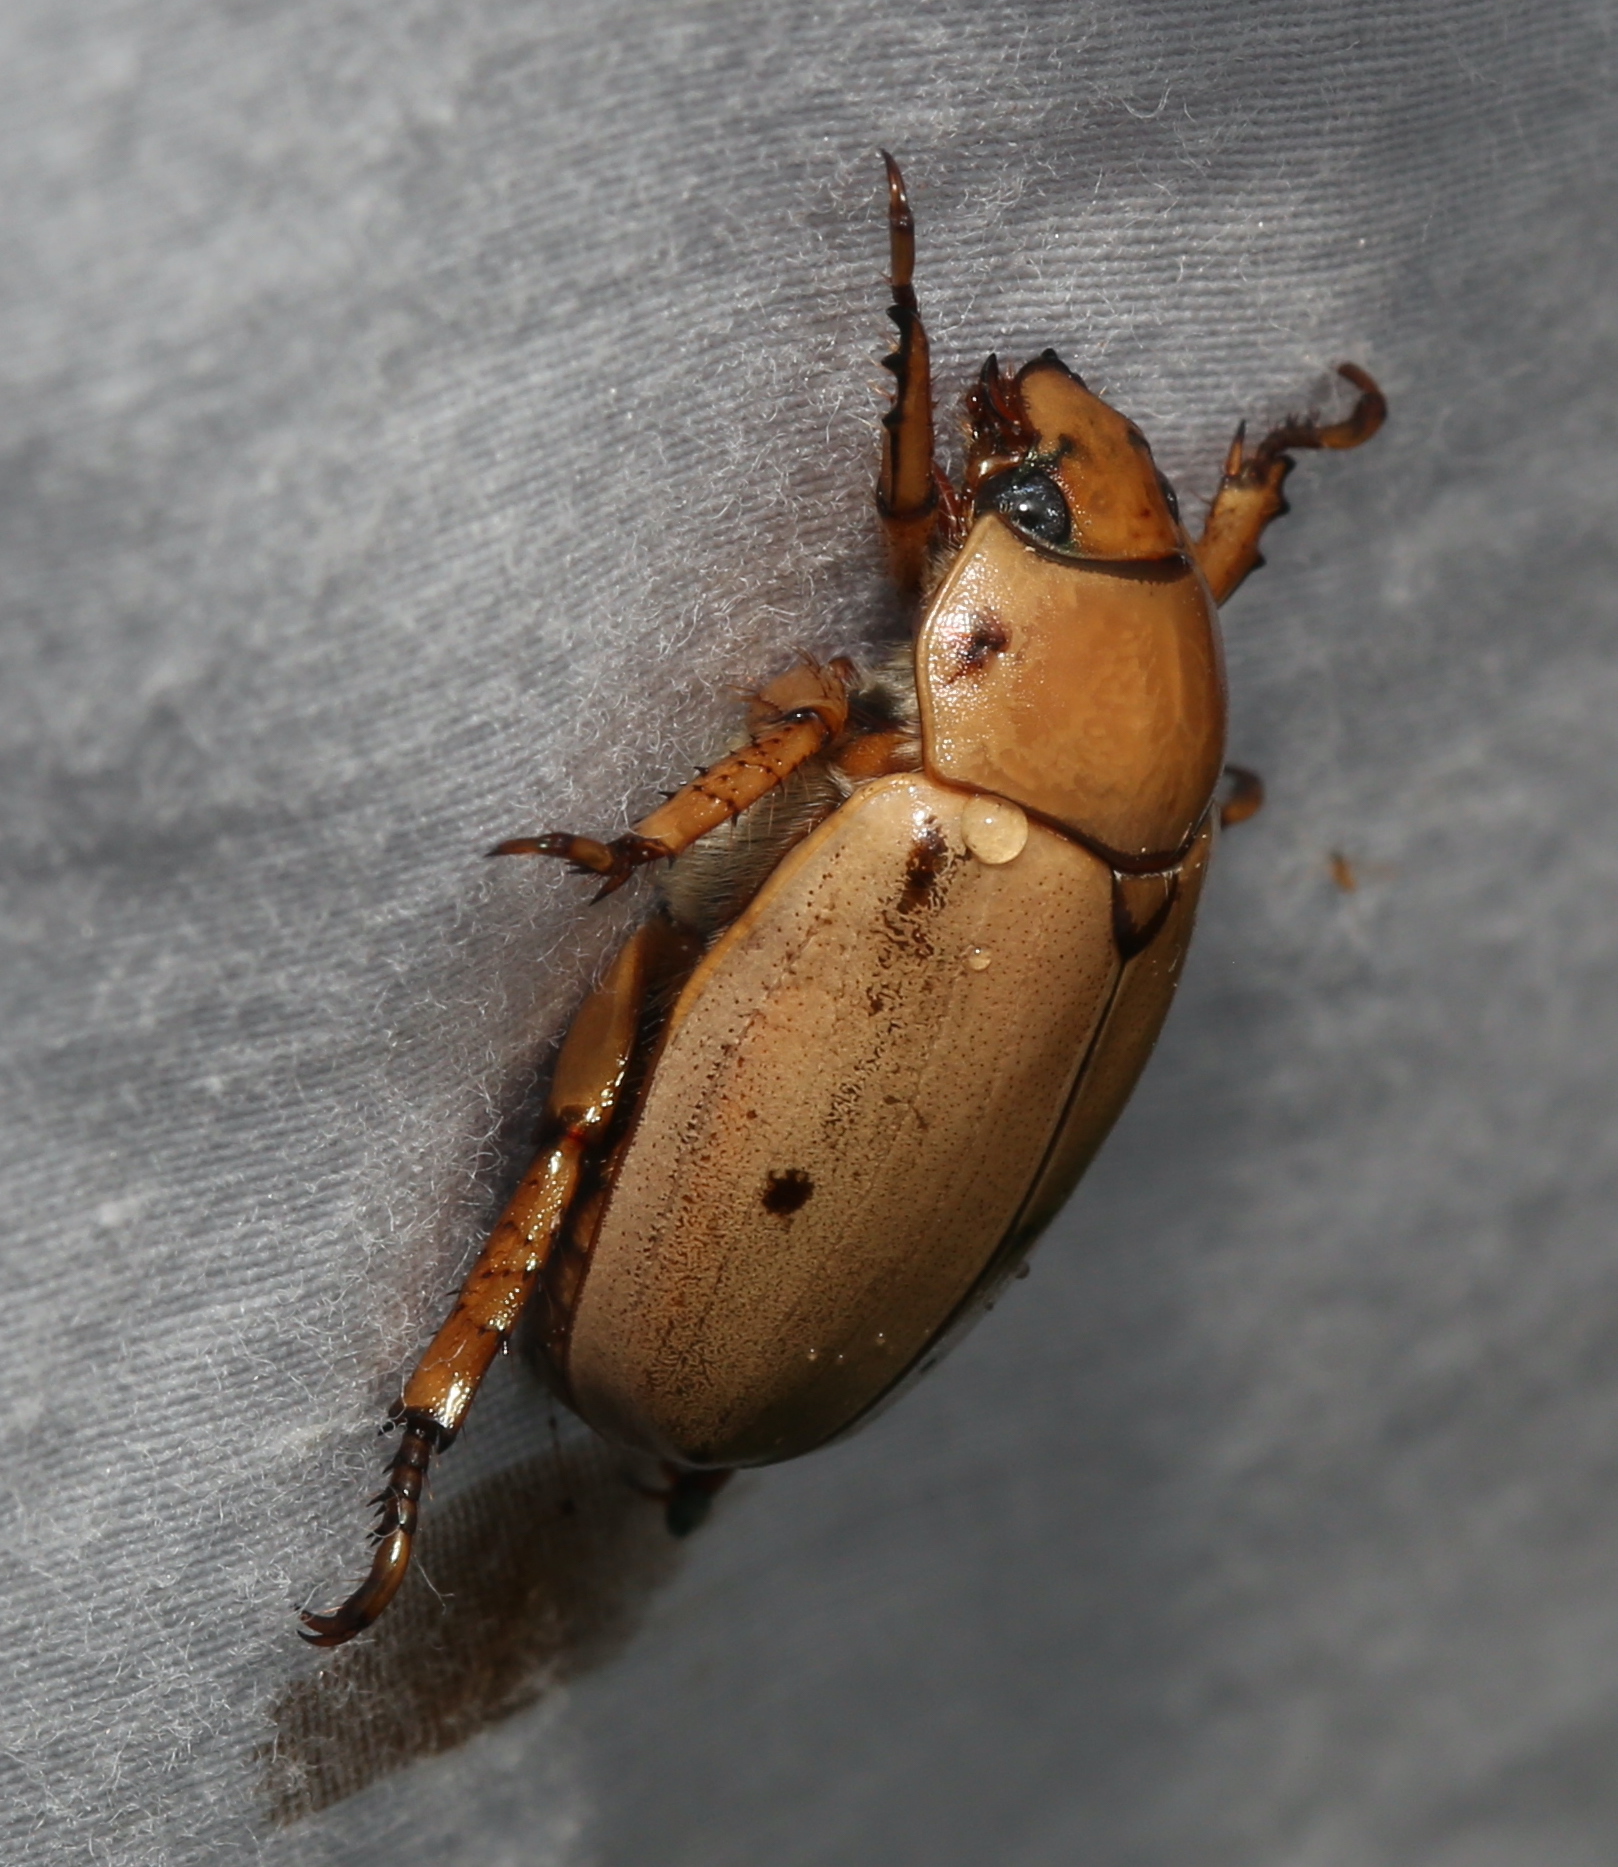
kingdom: Animalia
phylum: Arthropoda
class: Insecta
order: Coleoptera
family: Scarabaeidae
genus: Pelidnota
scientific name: Pelidnota punctata
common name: Grapevine beetle
